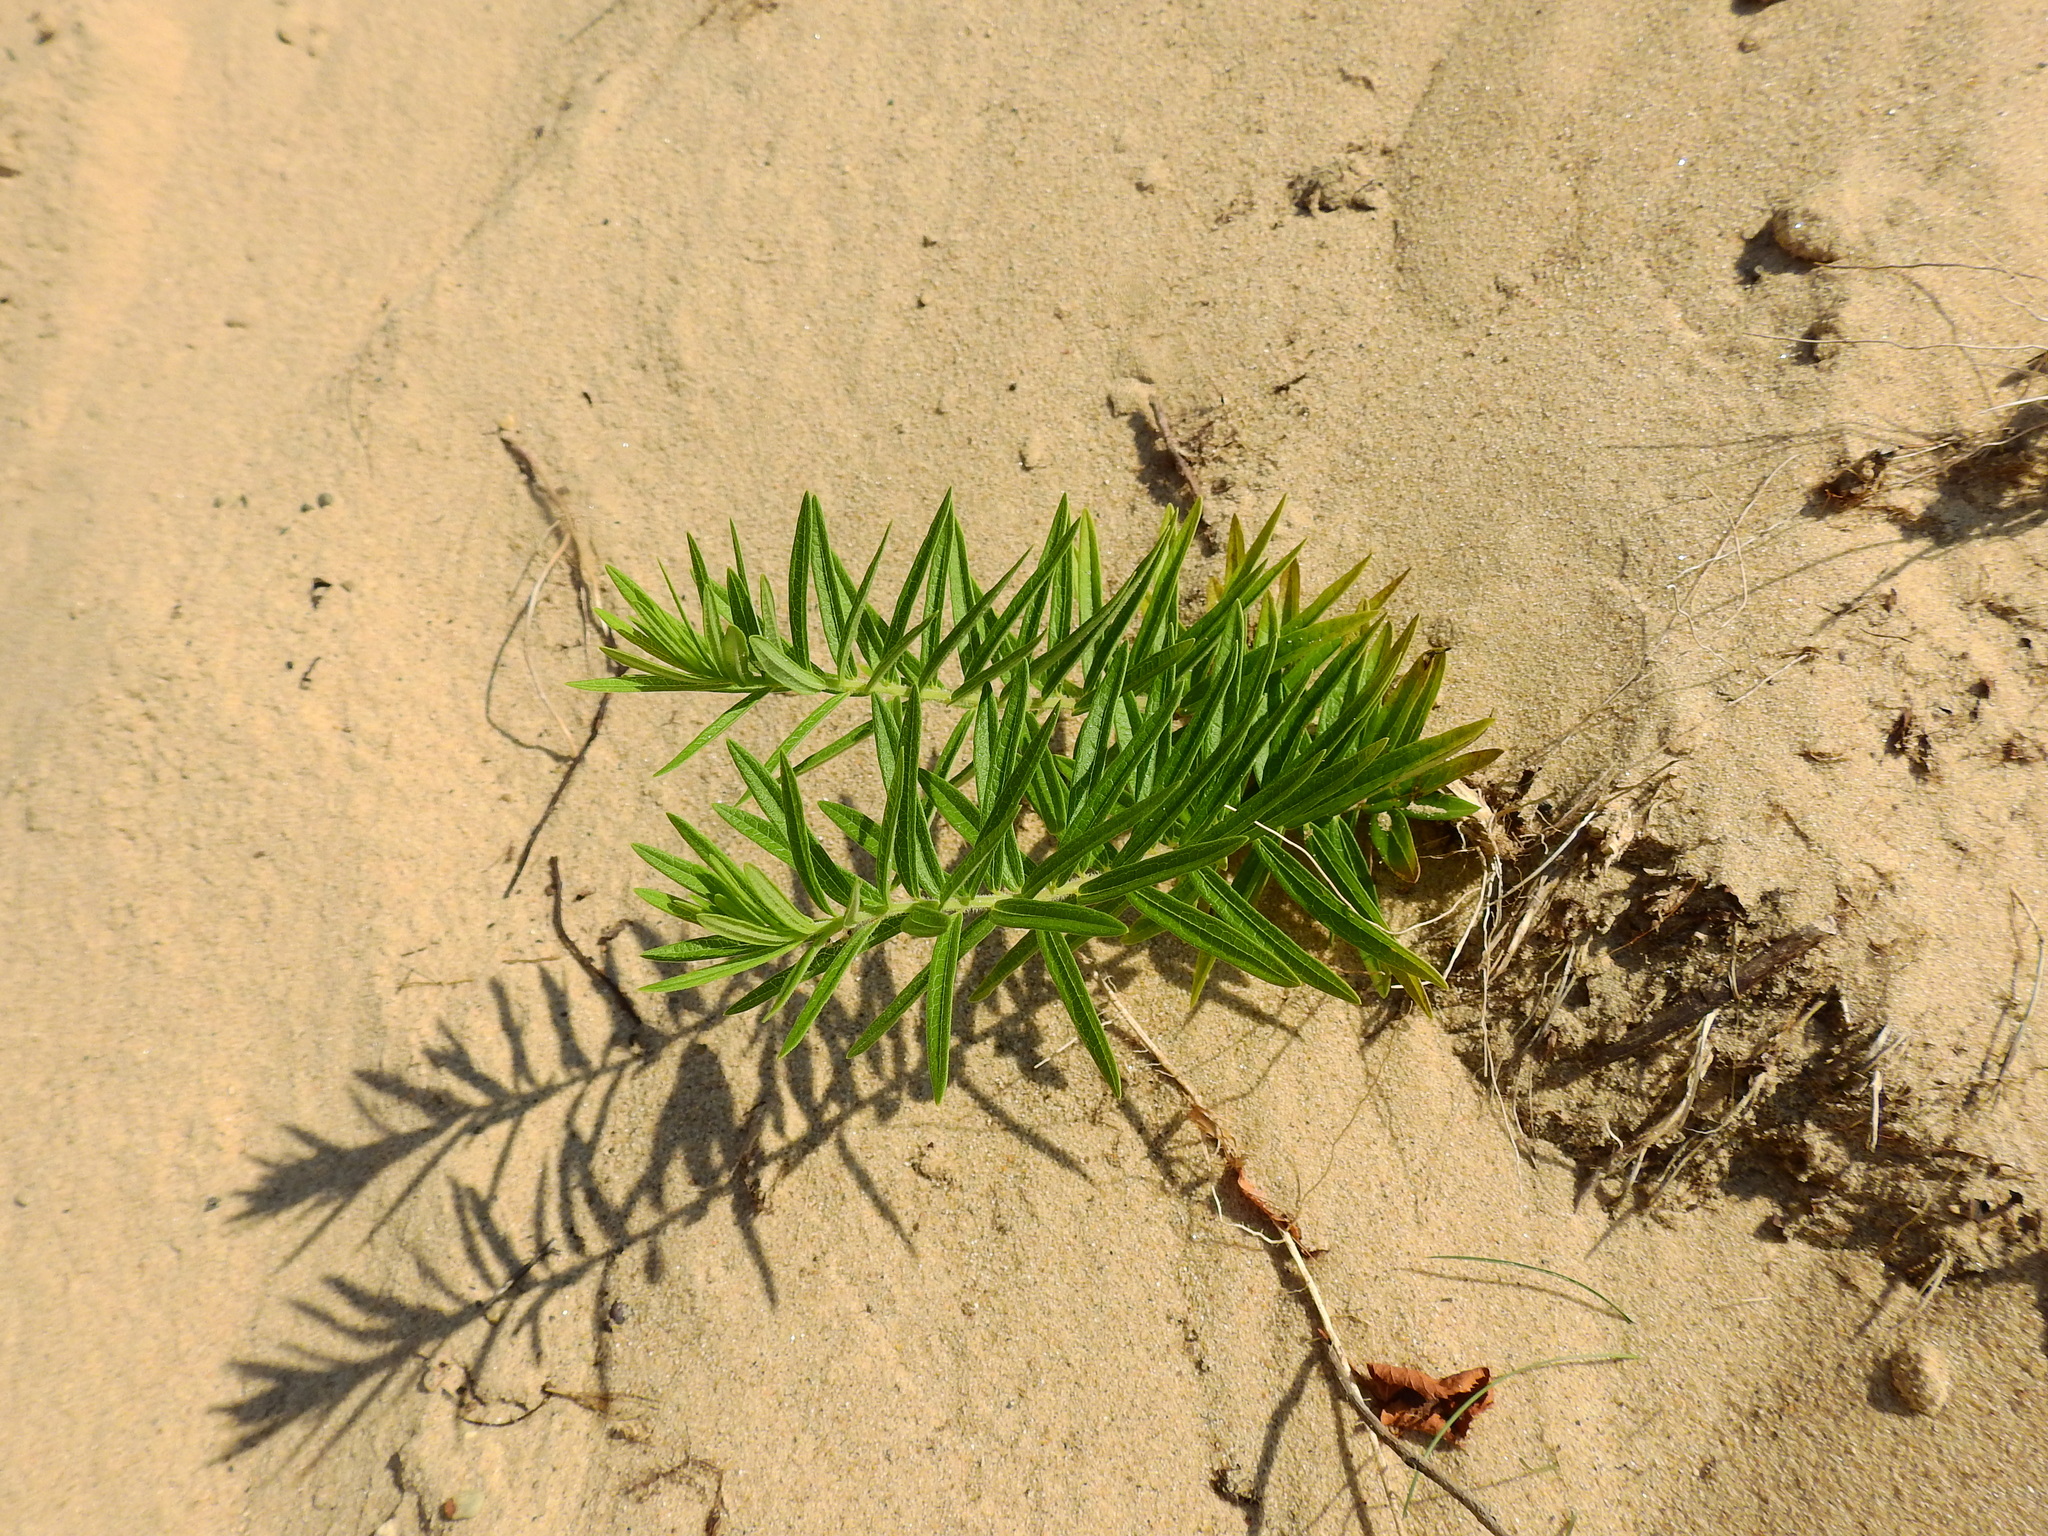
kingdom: Plantae
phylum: Tracheophyta
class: Magnoliopsida
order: Gentianales
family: Apocynaceae
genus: Asclepias
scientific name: Asclepias tuberosa
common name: Butterfly milkweed
